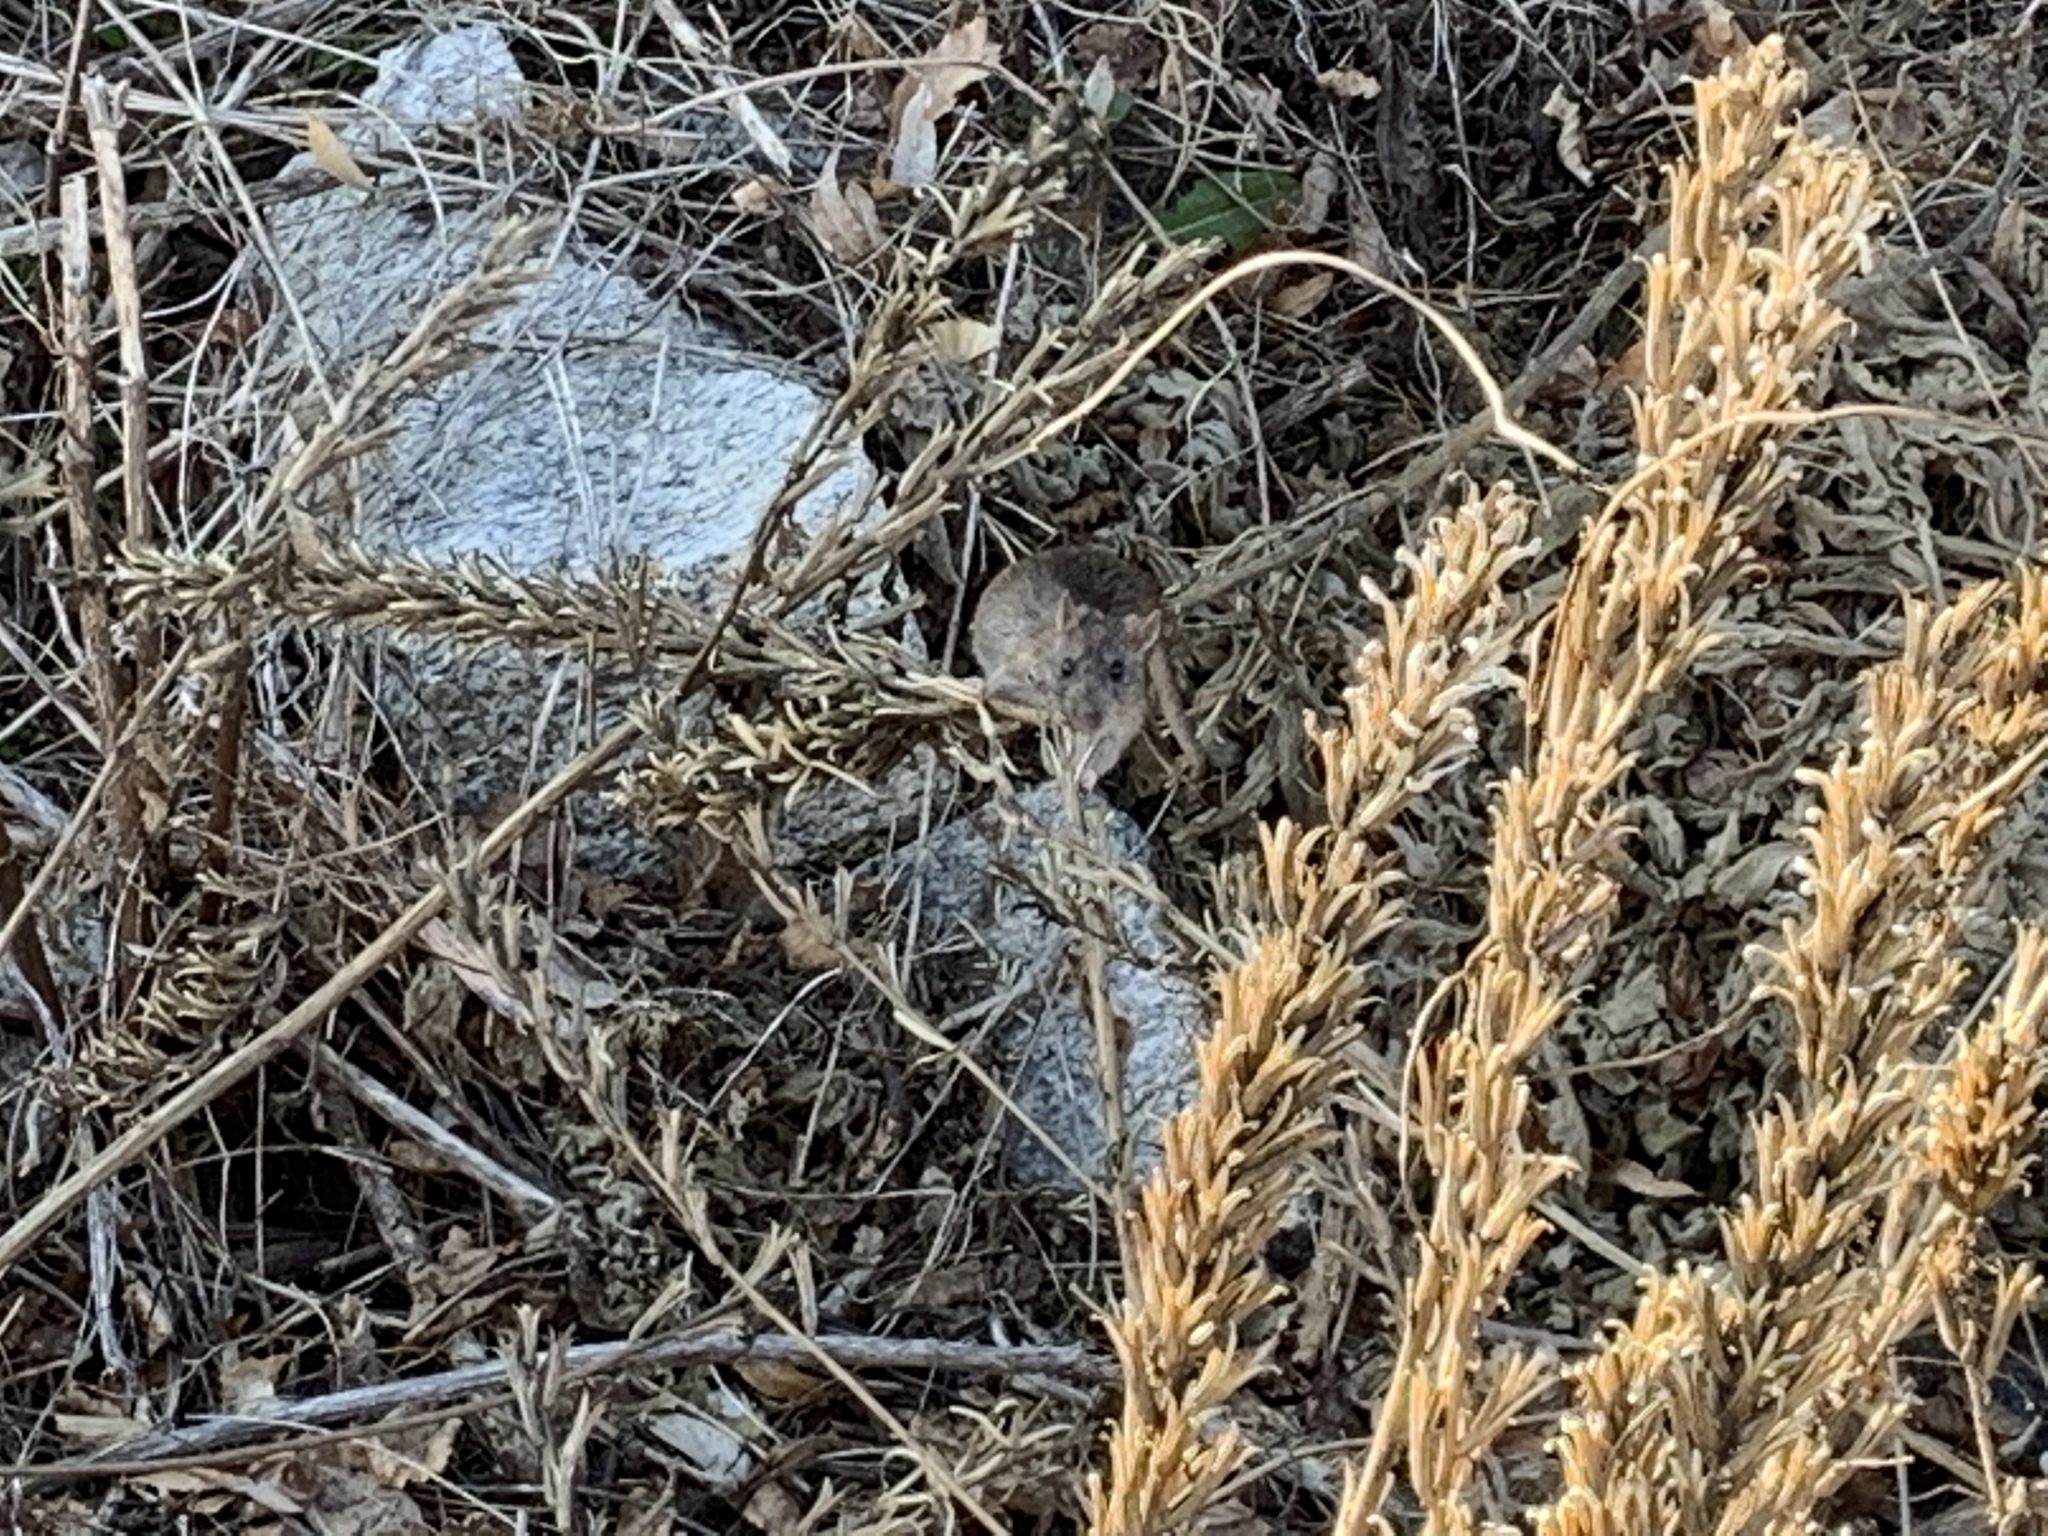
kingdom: Animalia
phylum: Chordata
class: Mammalia
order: Rodentia
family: Muridae
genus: Rattus
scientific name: Rattus norvegicus
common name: Brown rat
